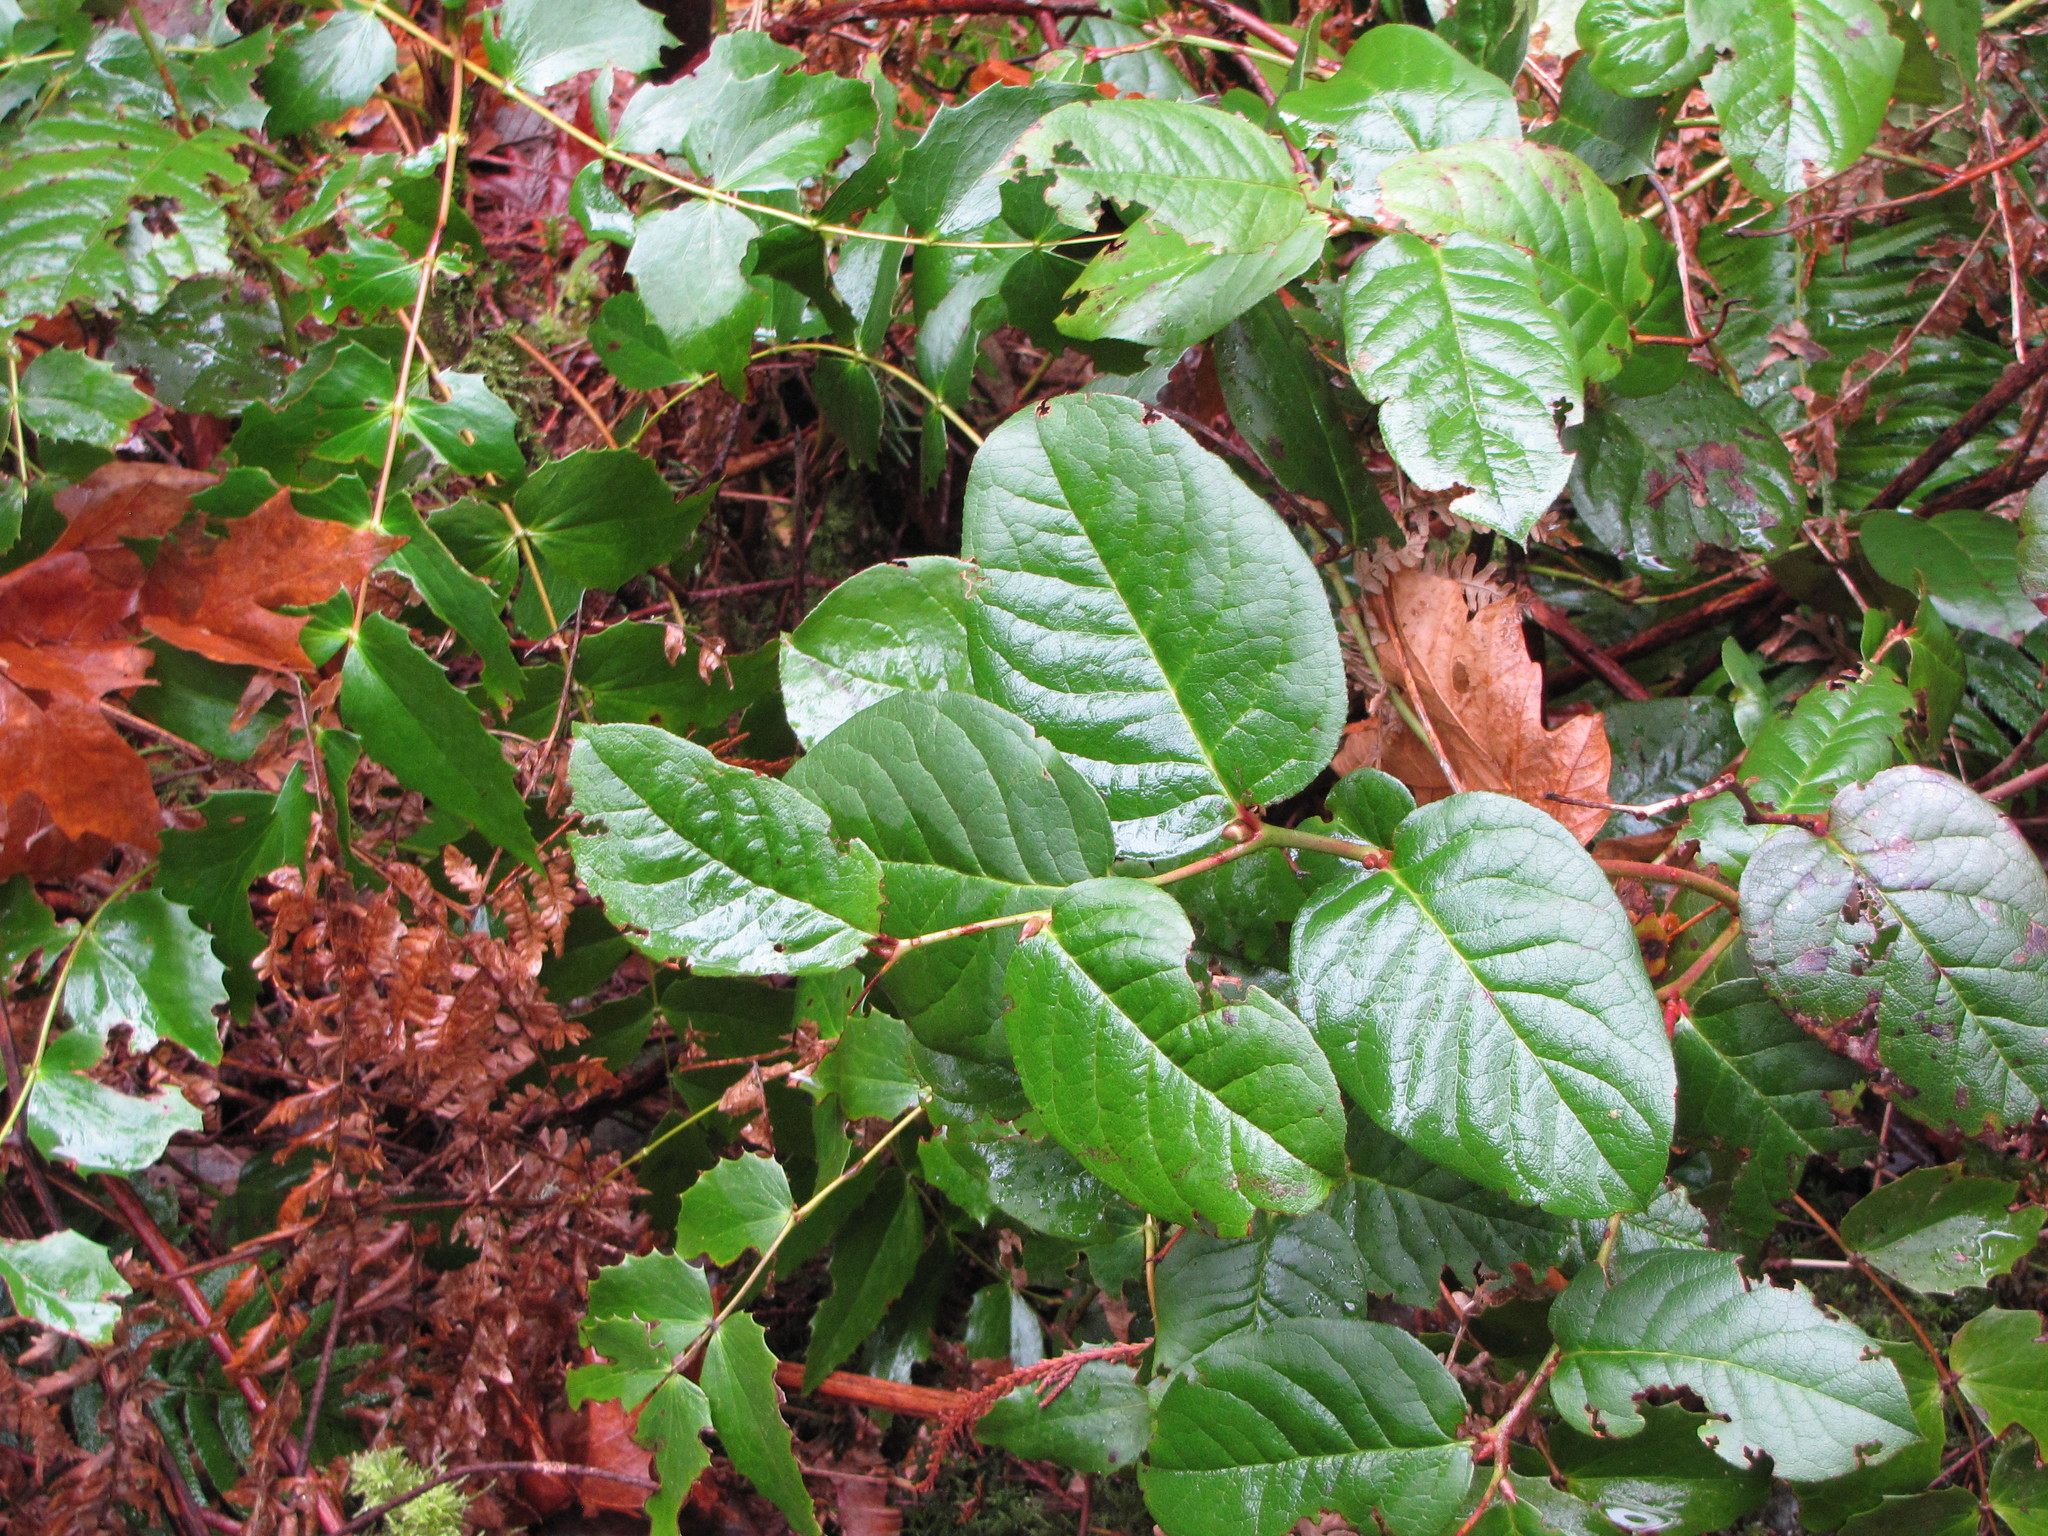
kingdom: Plantae
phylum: Tracheophyta
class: Magnoliopsida
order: Ericales
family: Ericaceae
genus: Gaultheria
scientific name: Gaultheria shallon
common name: Shallon
